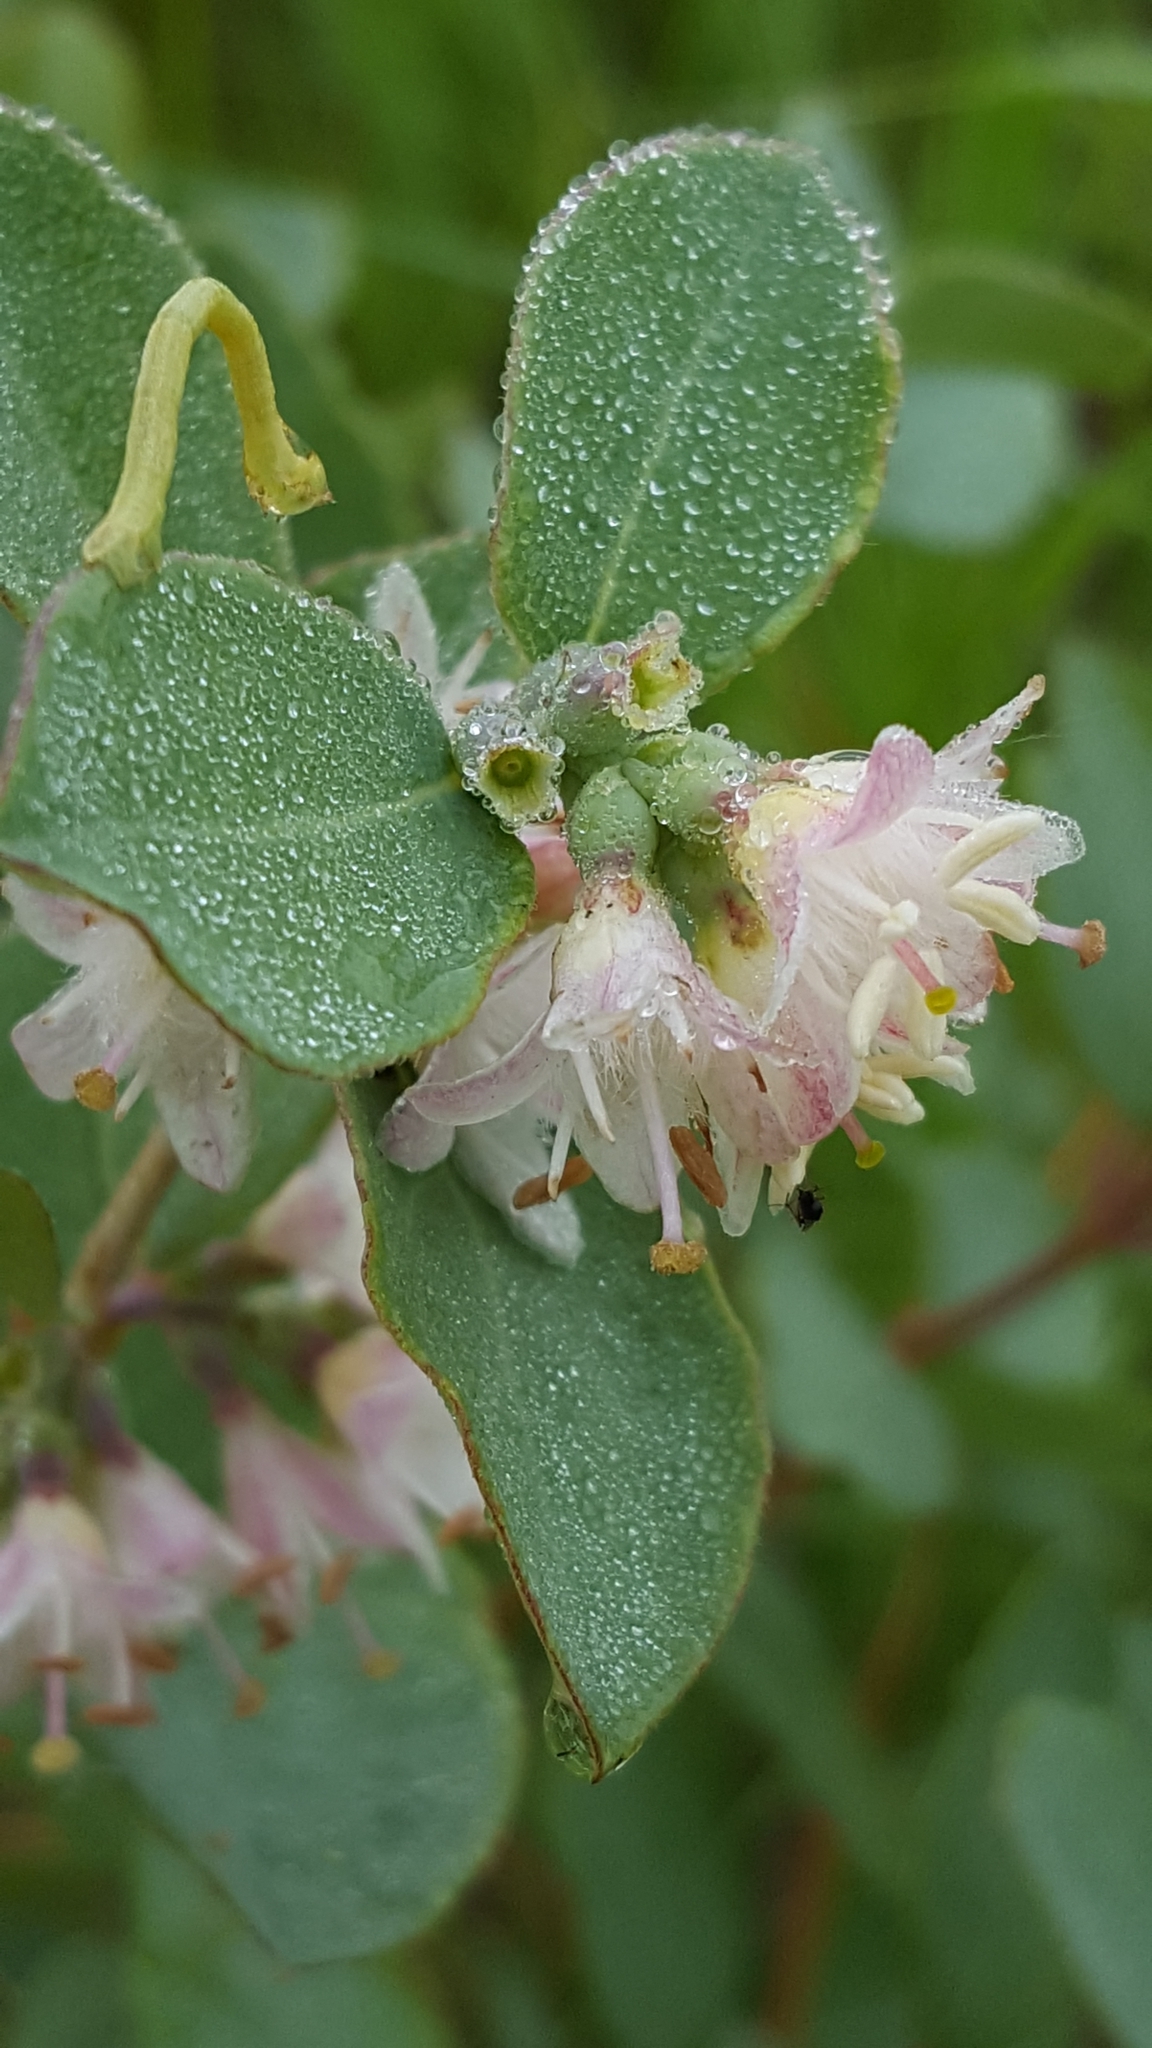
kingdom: Plantae
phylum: Tracheophyta
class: Magnoliopsida
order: Dipsacales
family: Caprifoliaceae
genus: Symphoricarpos
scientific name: Symphoricarpos occidentalis
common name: Wolfberry
